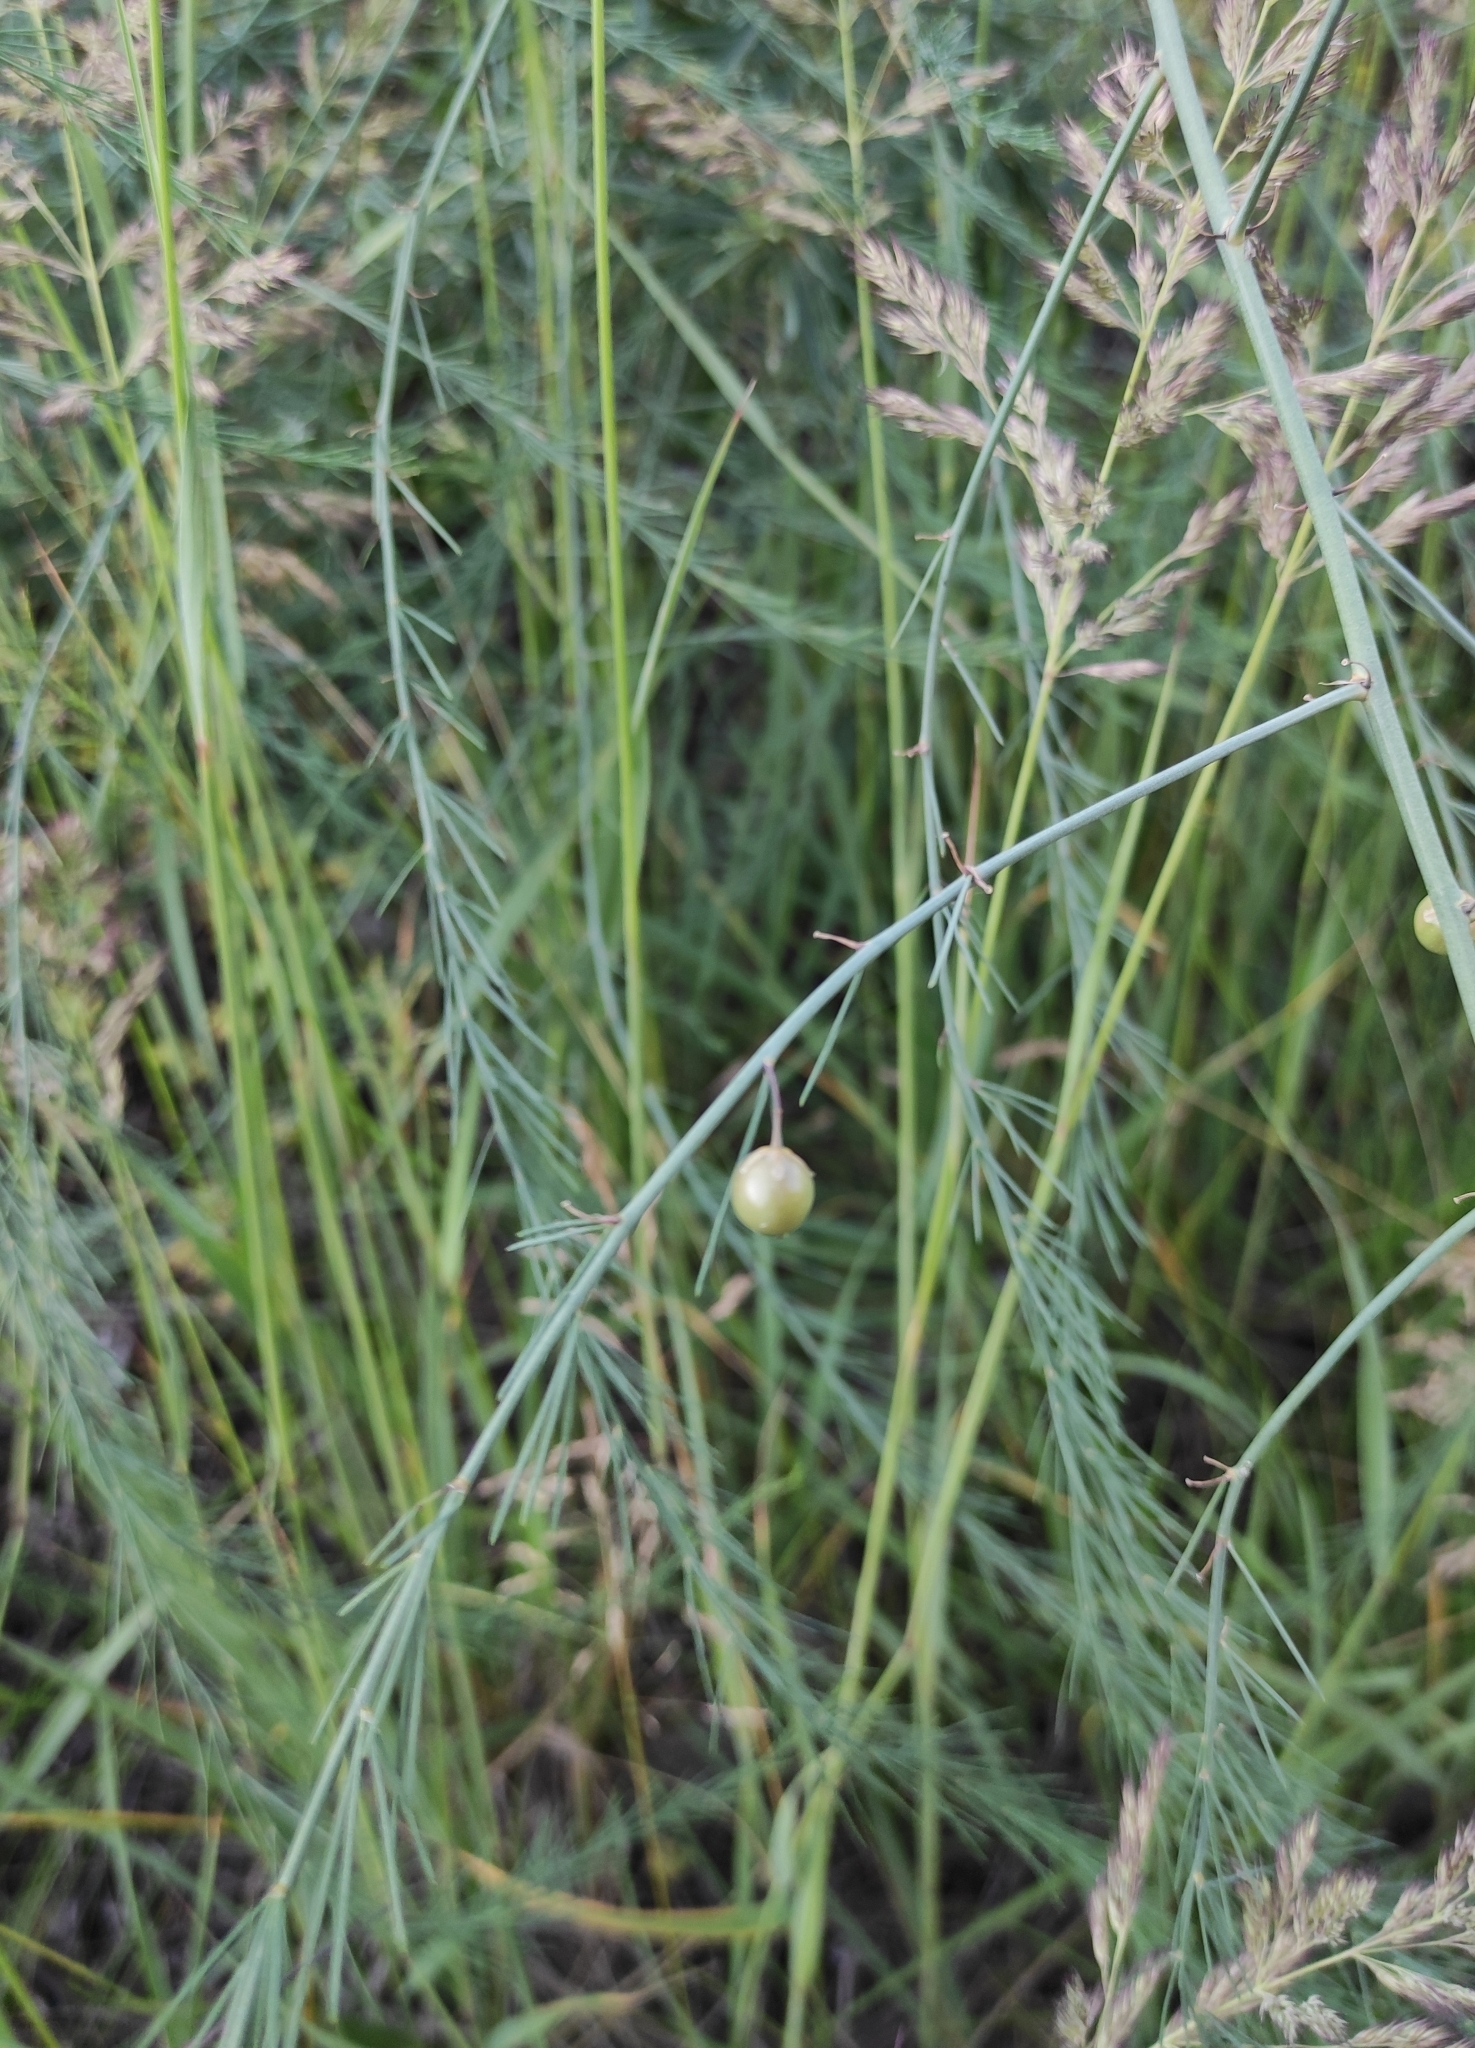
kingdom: Plantae
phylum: Tracheophyta
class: Liliopsida
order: Asparagales
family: Asparagaceae
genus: Asparagus
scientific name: Asparagus officinalis
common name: Garden asparagus
